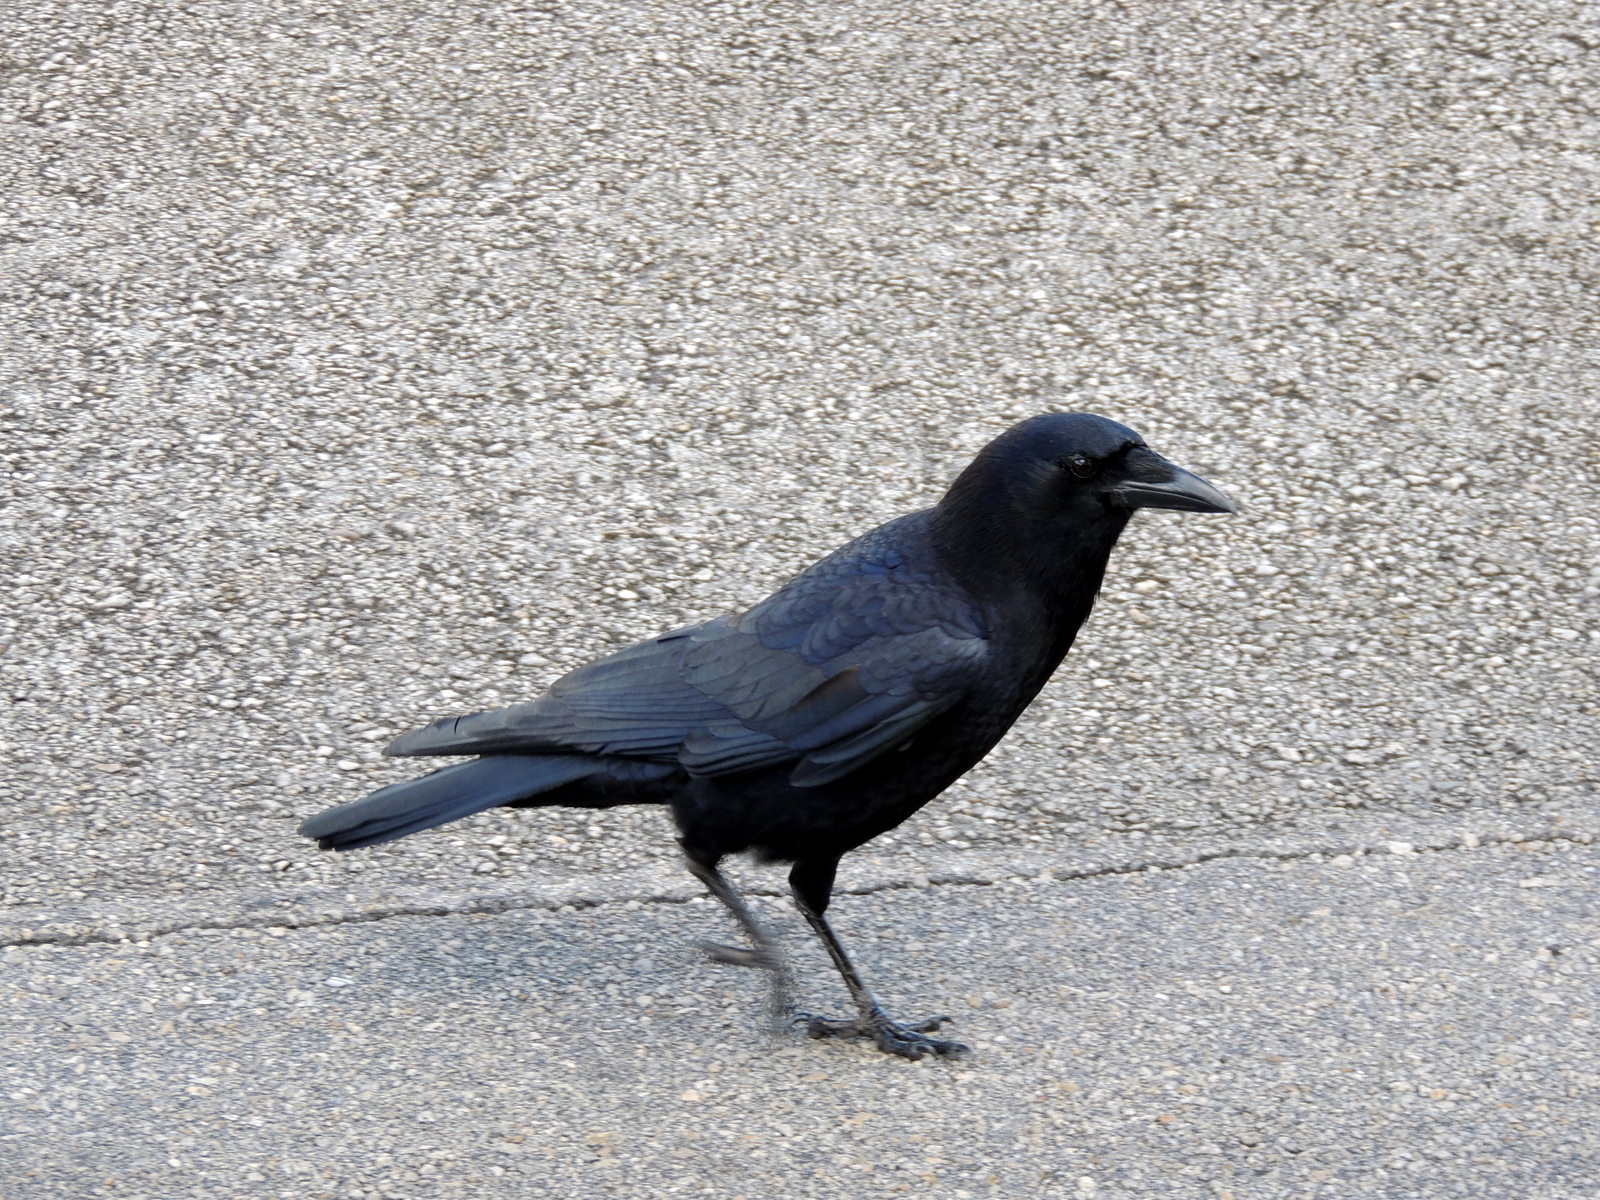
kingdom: Animalia
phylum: Chordata
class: Aves
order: Passeriformes
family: Corvidae
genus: Corvus
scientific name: Corvus brachyrhynchos
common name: American crow
